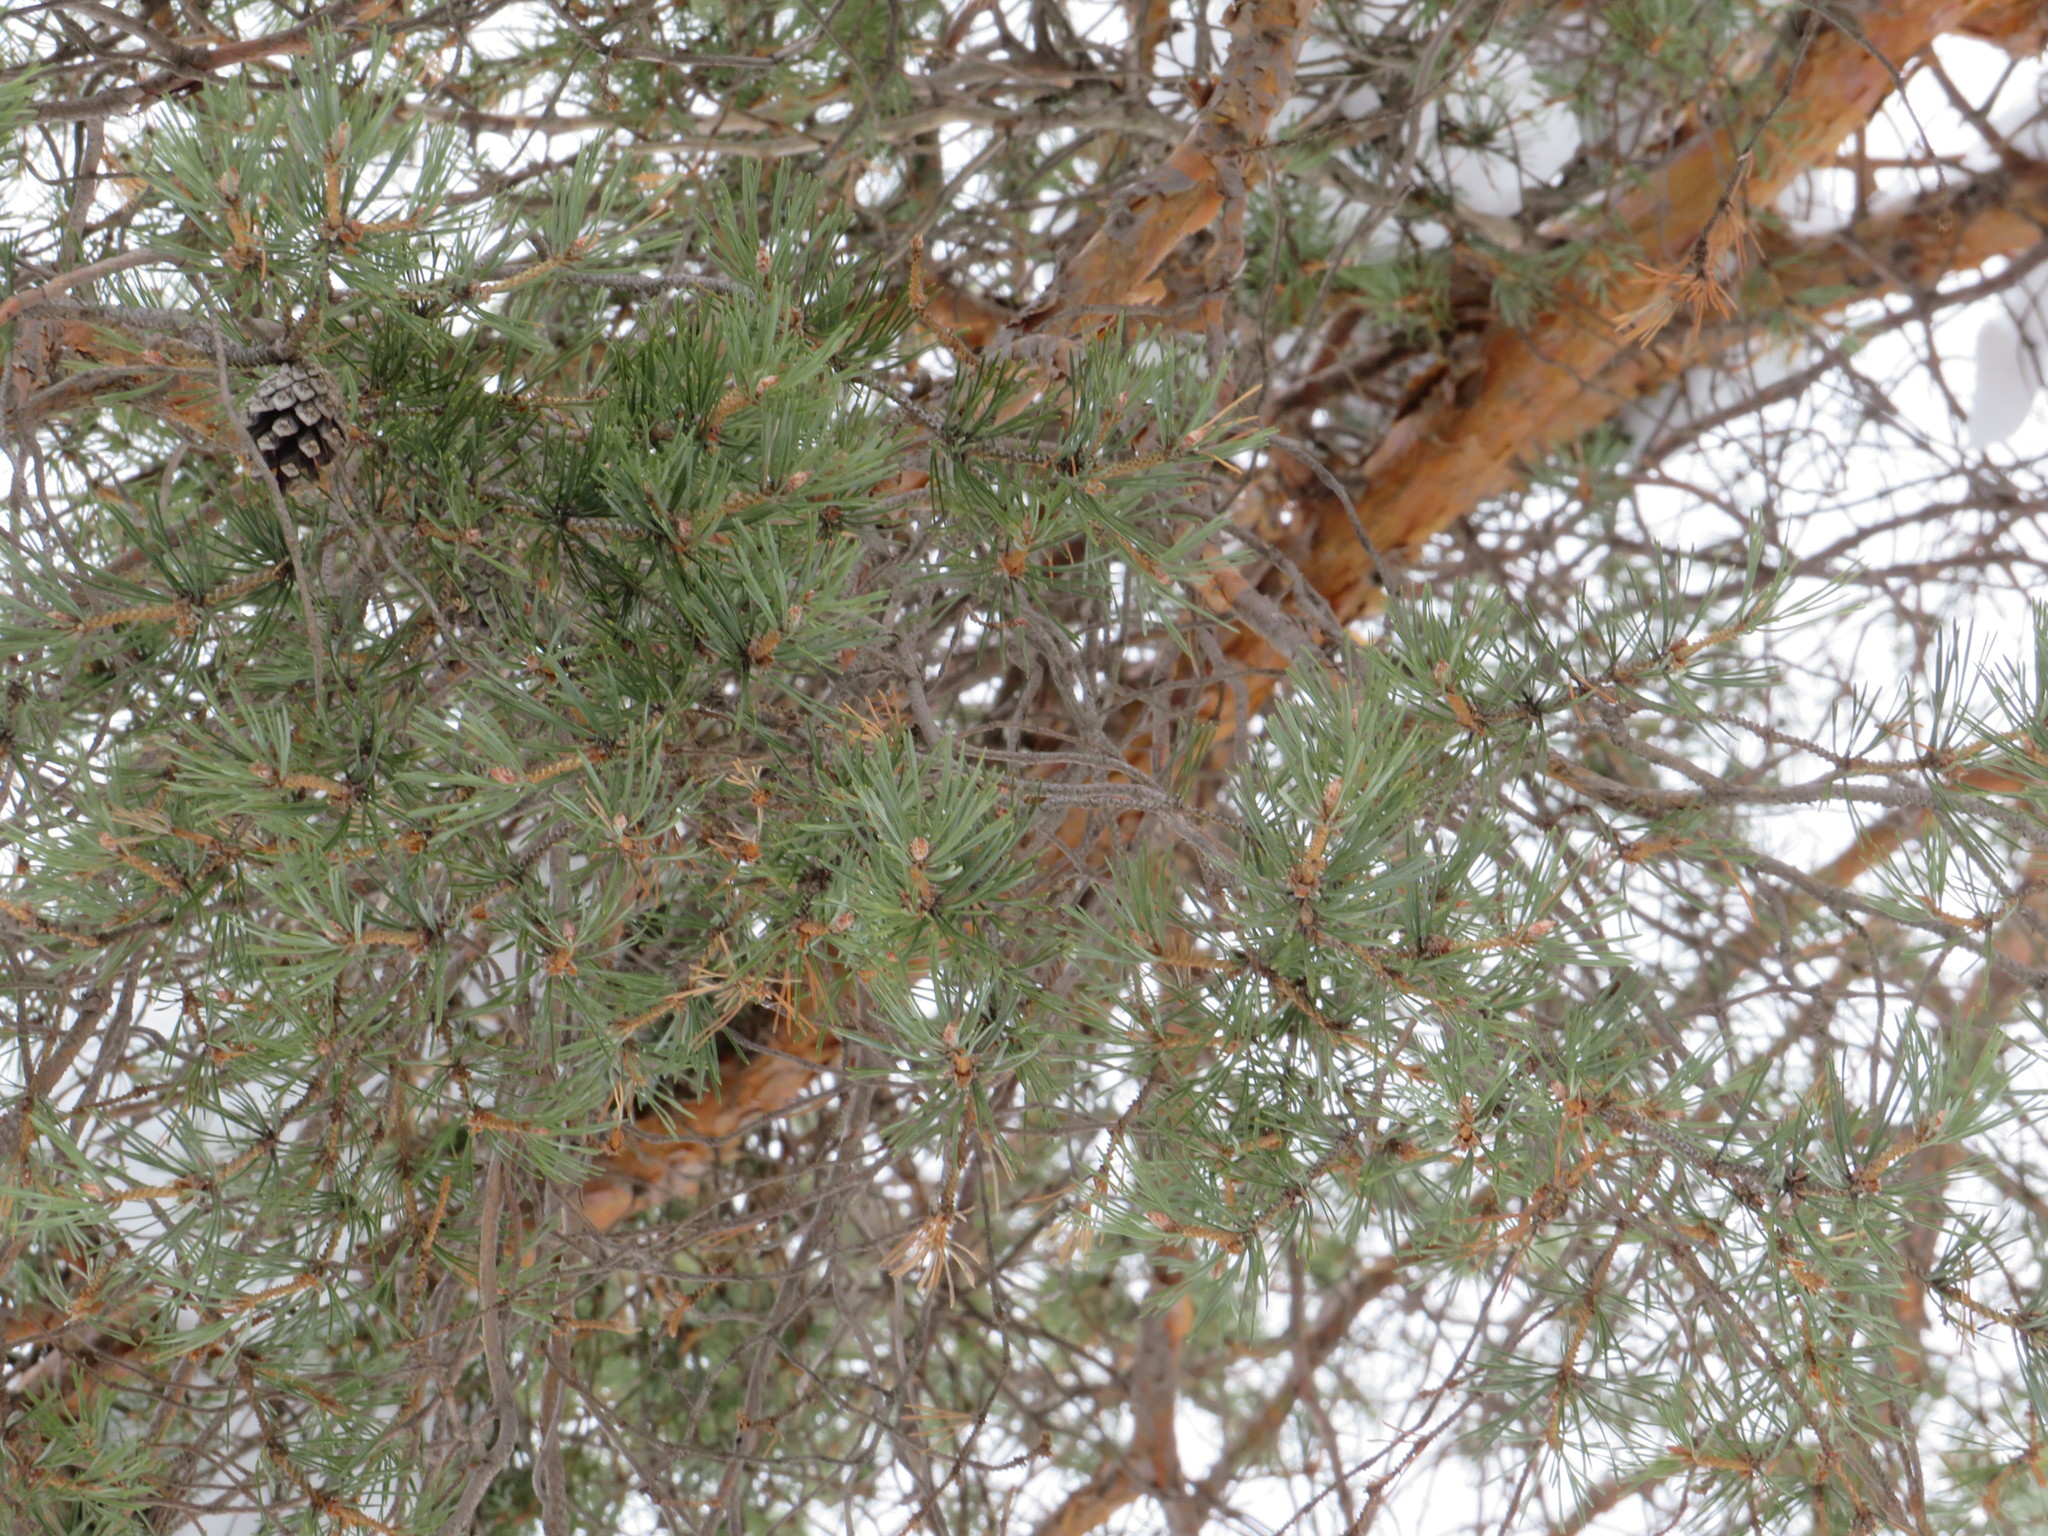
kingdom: Plantae
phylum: Tracheophyta
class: Pinopsida
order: Pinales
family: Pinaceae
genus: Pinus
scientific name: Pinus sylvestris
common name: Scots pine
